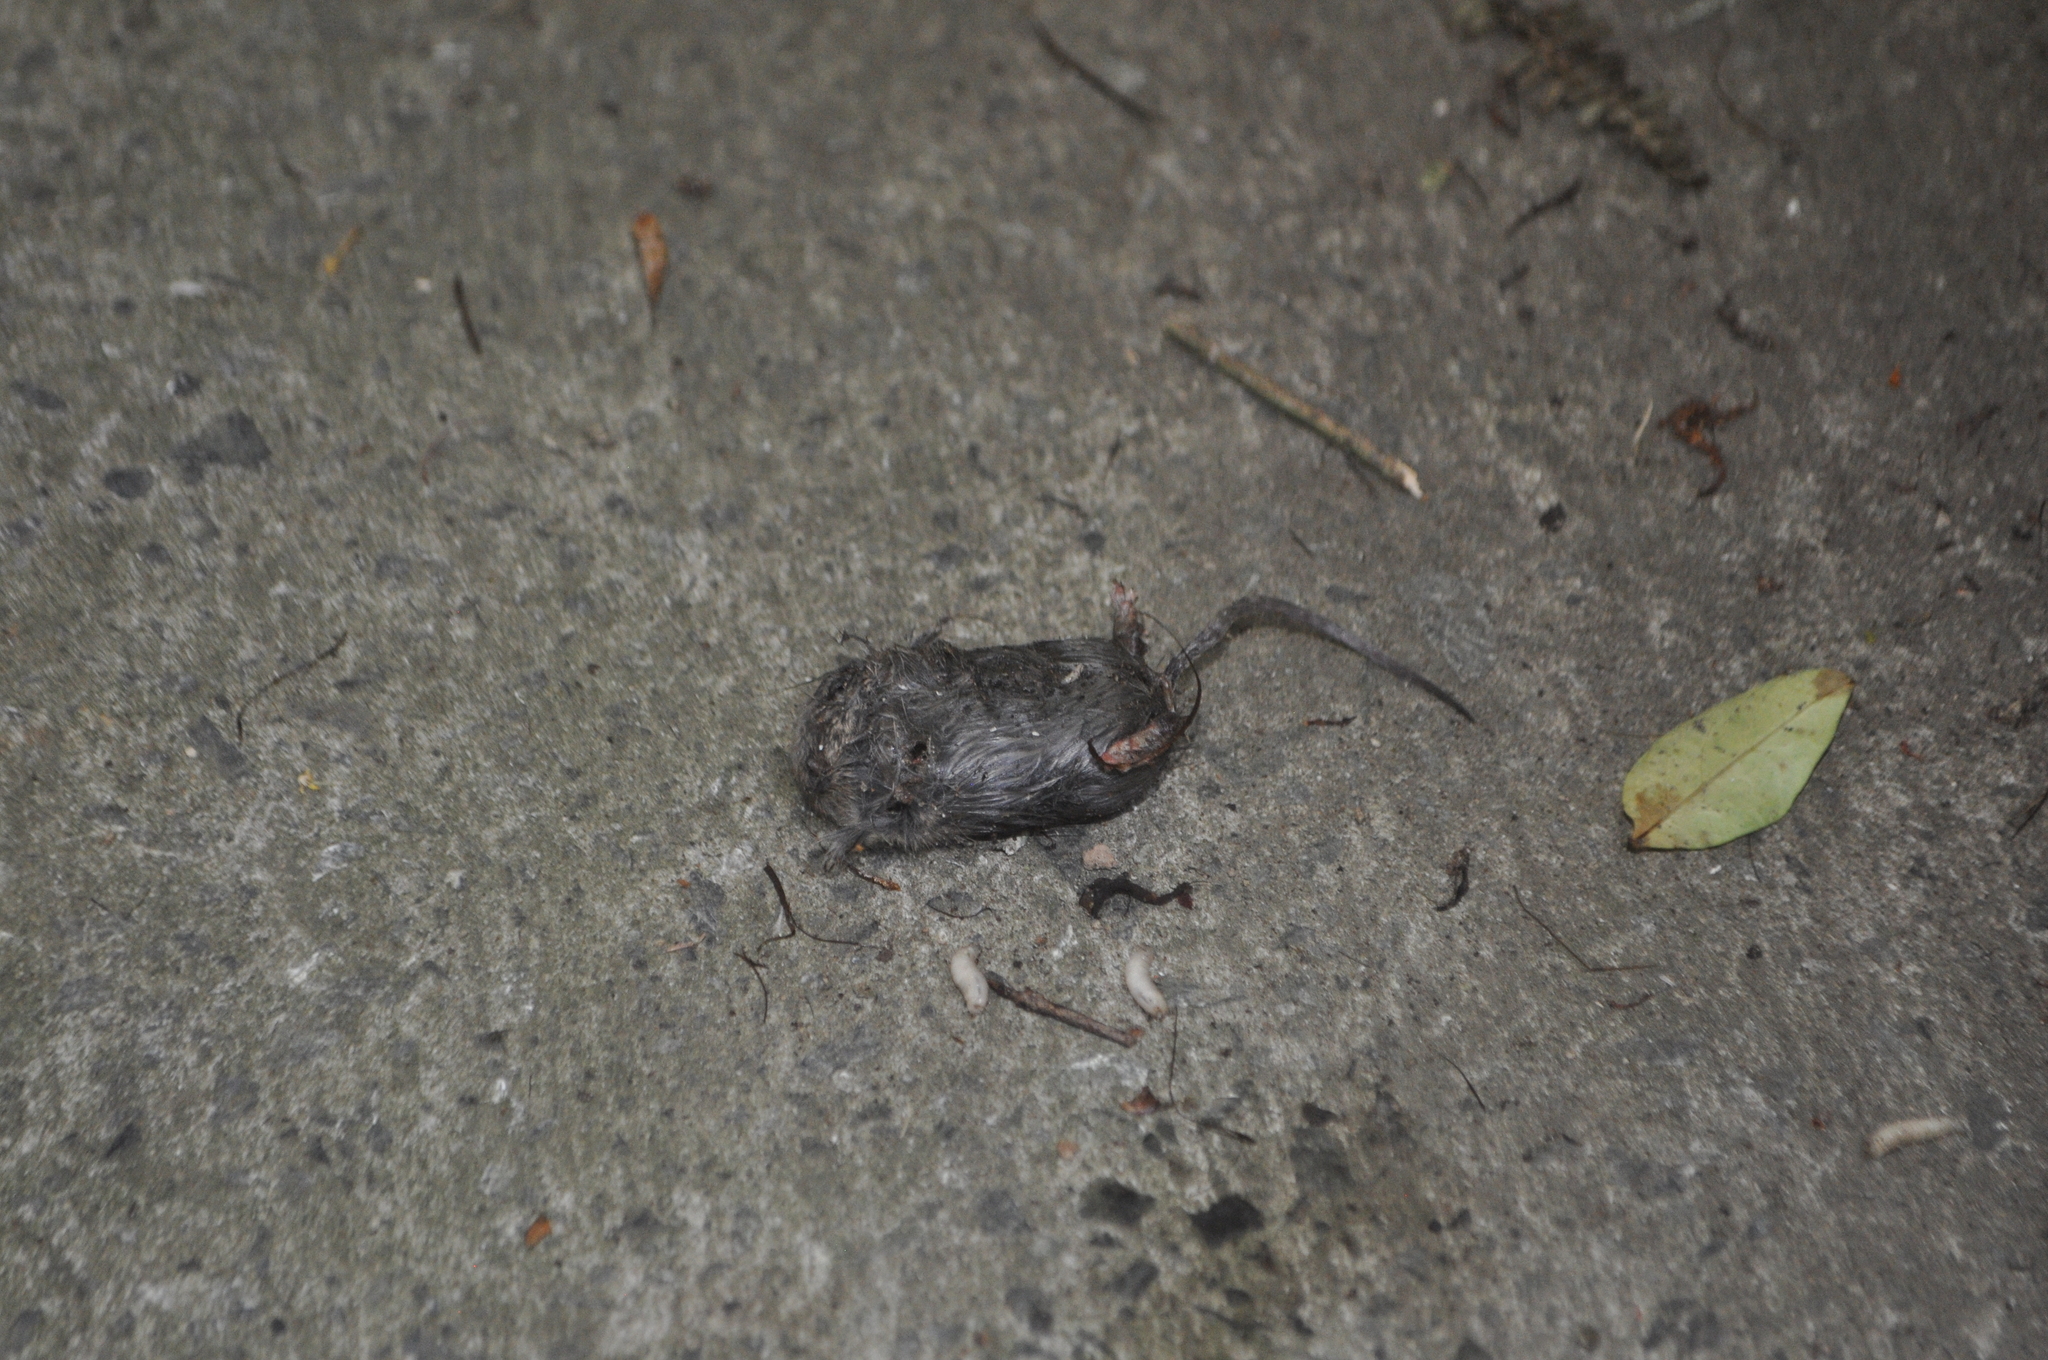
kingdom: Animalia
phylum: Chordata
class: Mammalia
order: Rodentia
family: Muridae
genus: Mus
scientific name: Mus musculus
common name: House mouse
